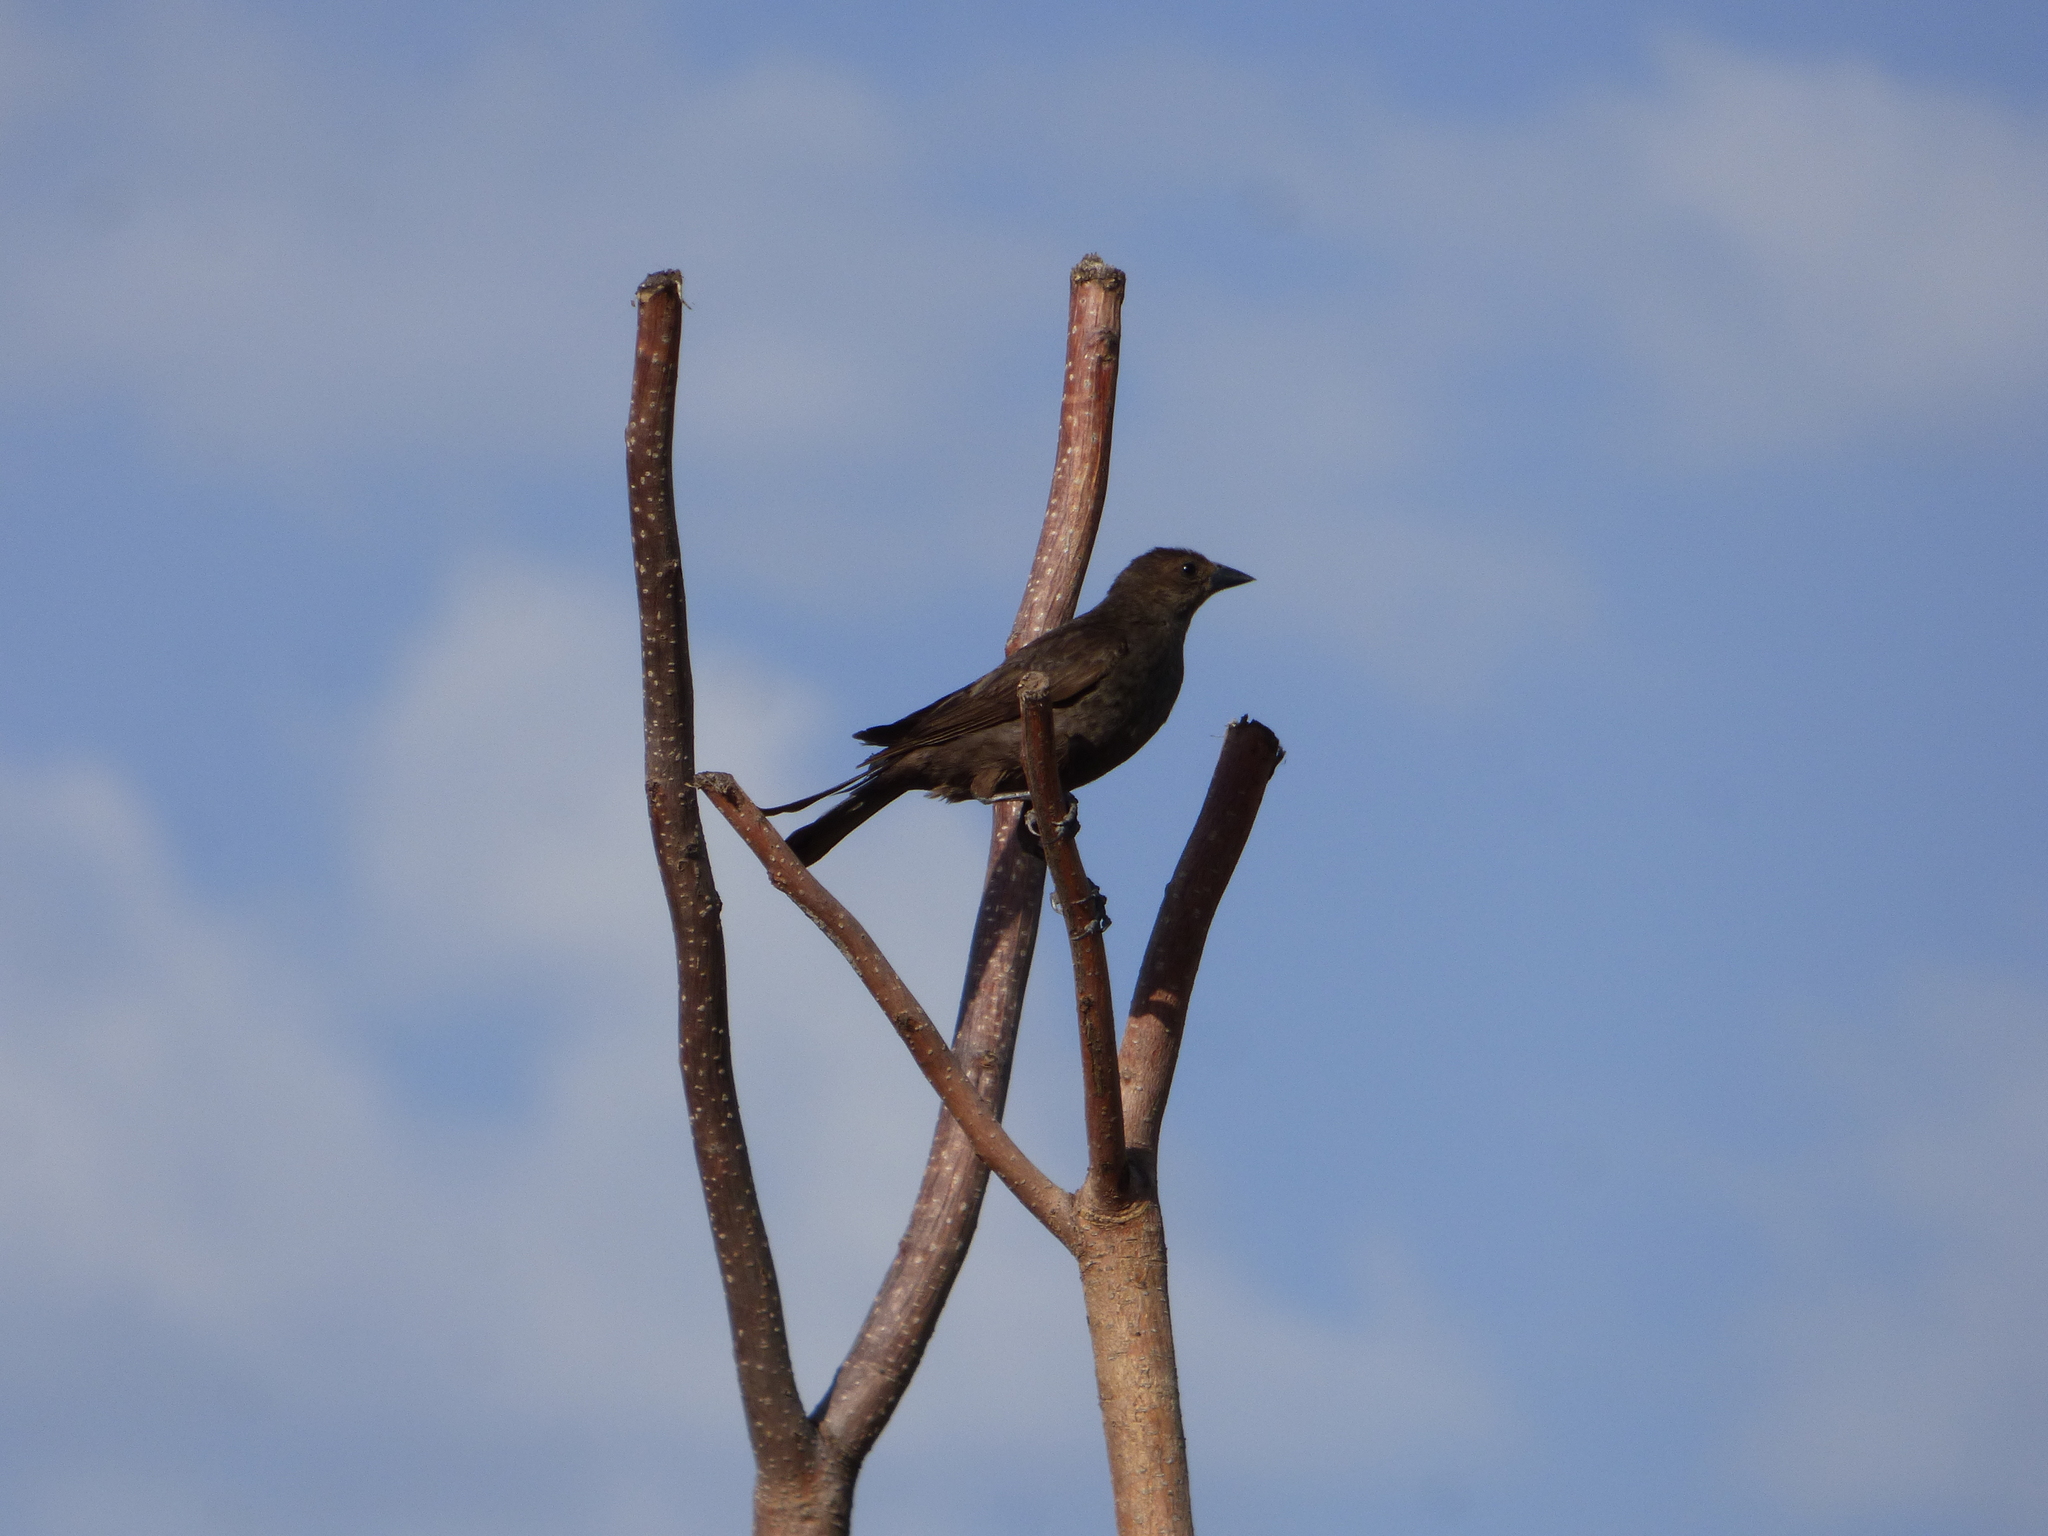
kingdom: Animalia
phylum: Chordata
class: Aves
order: Passeriformes
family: Icteridae
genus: Molothrus
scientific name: Molothrus bonariensis
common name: Shiny cowbird
